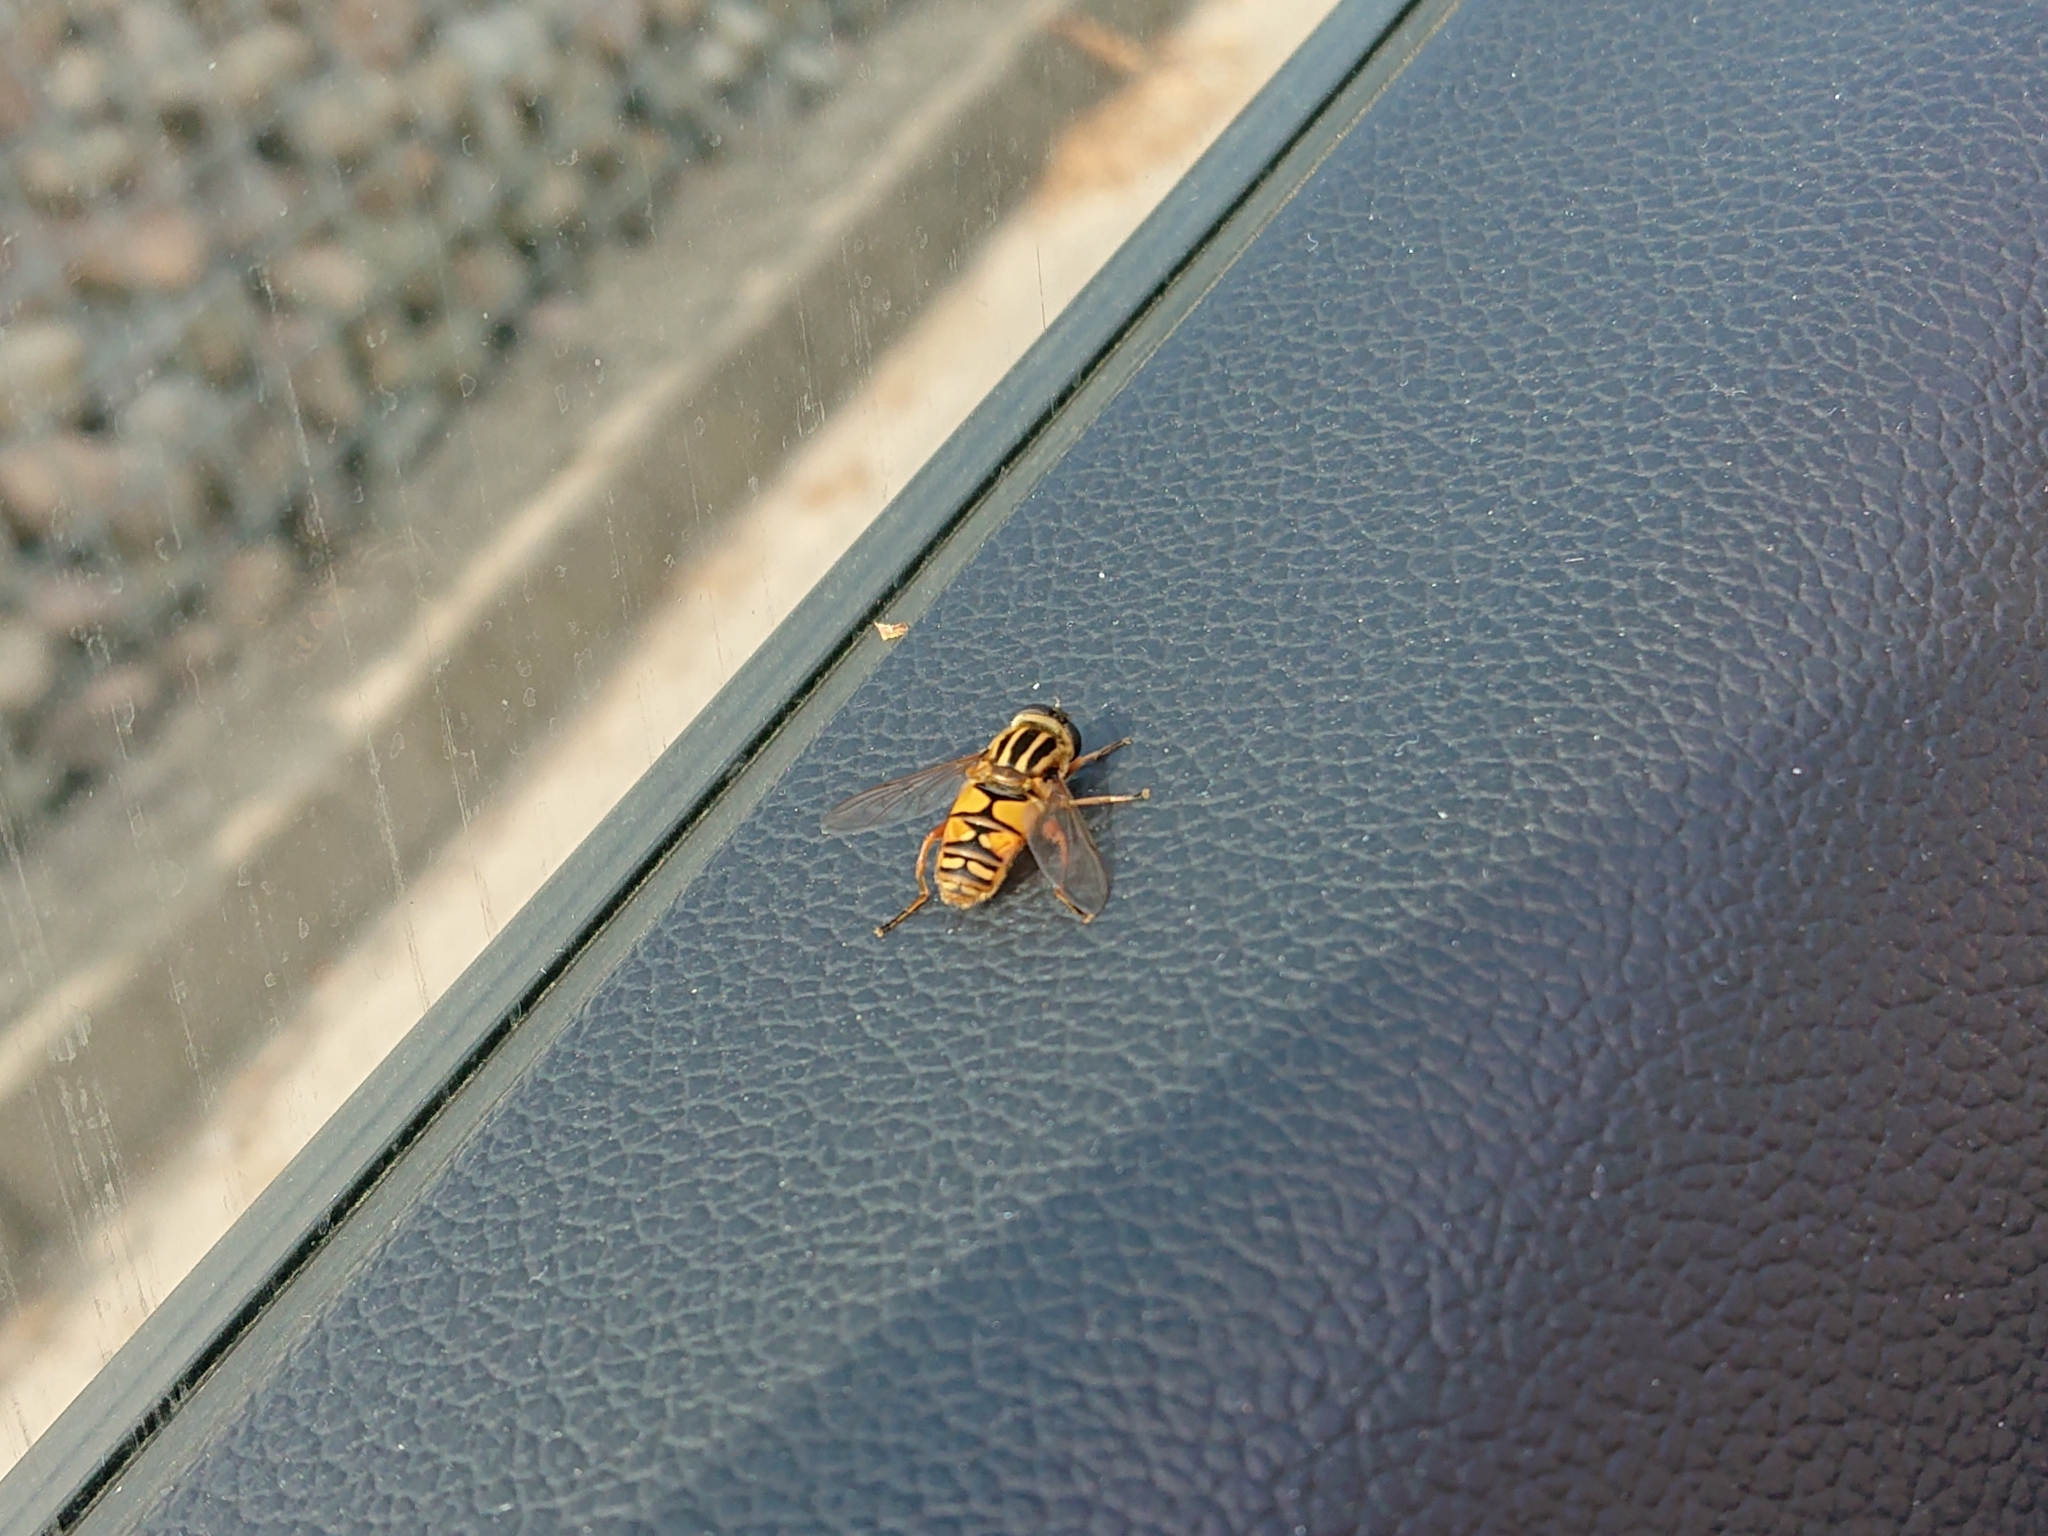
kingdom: Animalia
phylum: Arthropoda
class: Insecta
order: Diptera
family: Syrphidae
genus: Helophilus
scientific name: Helophilus pendulus
